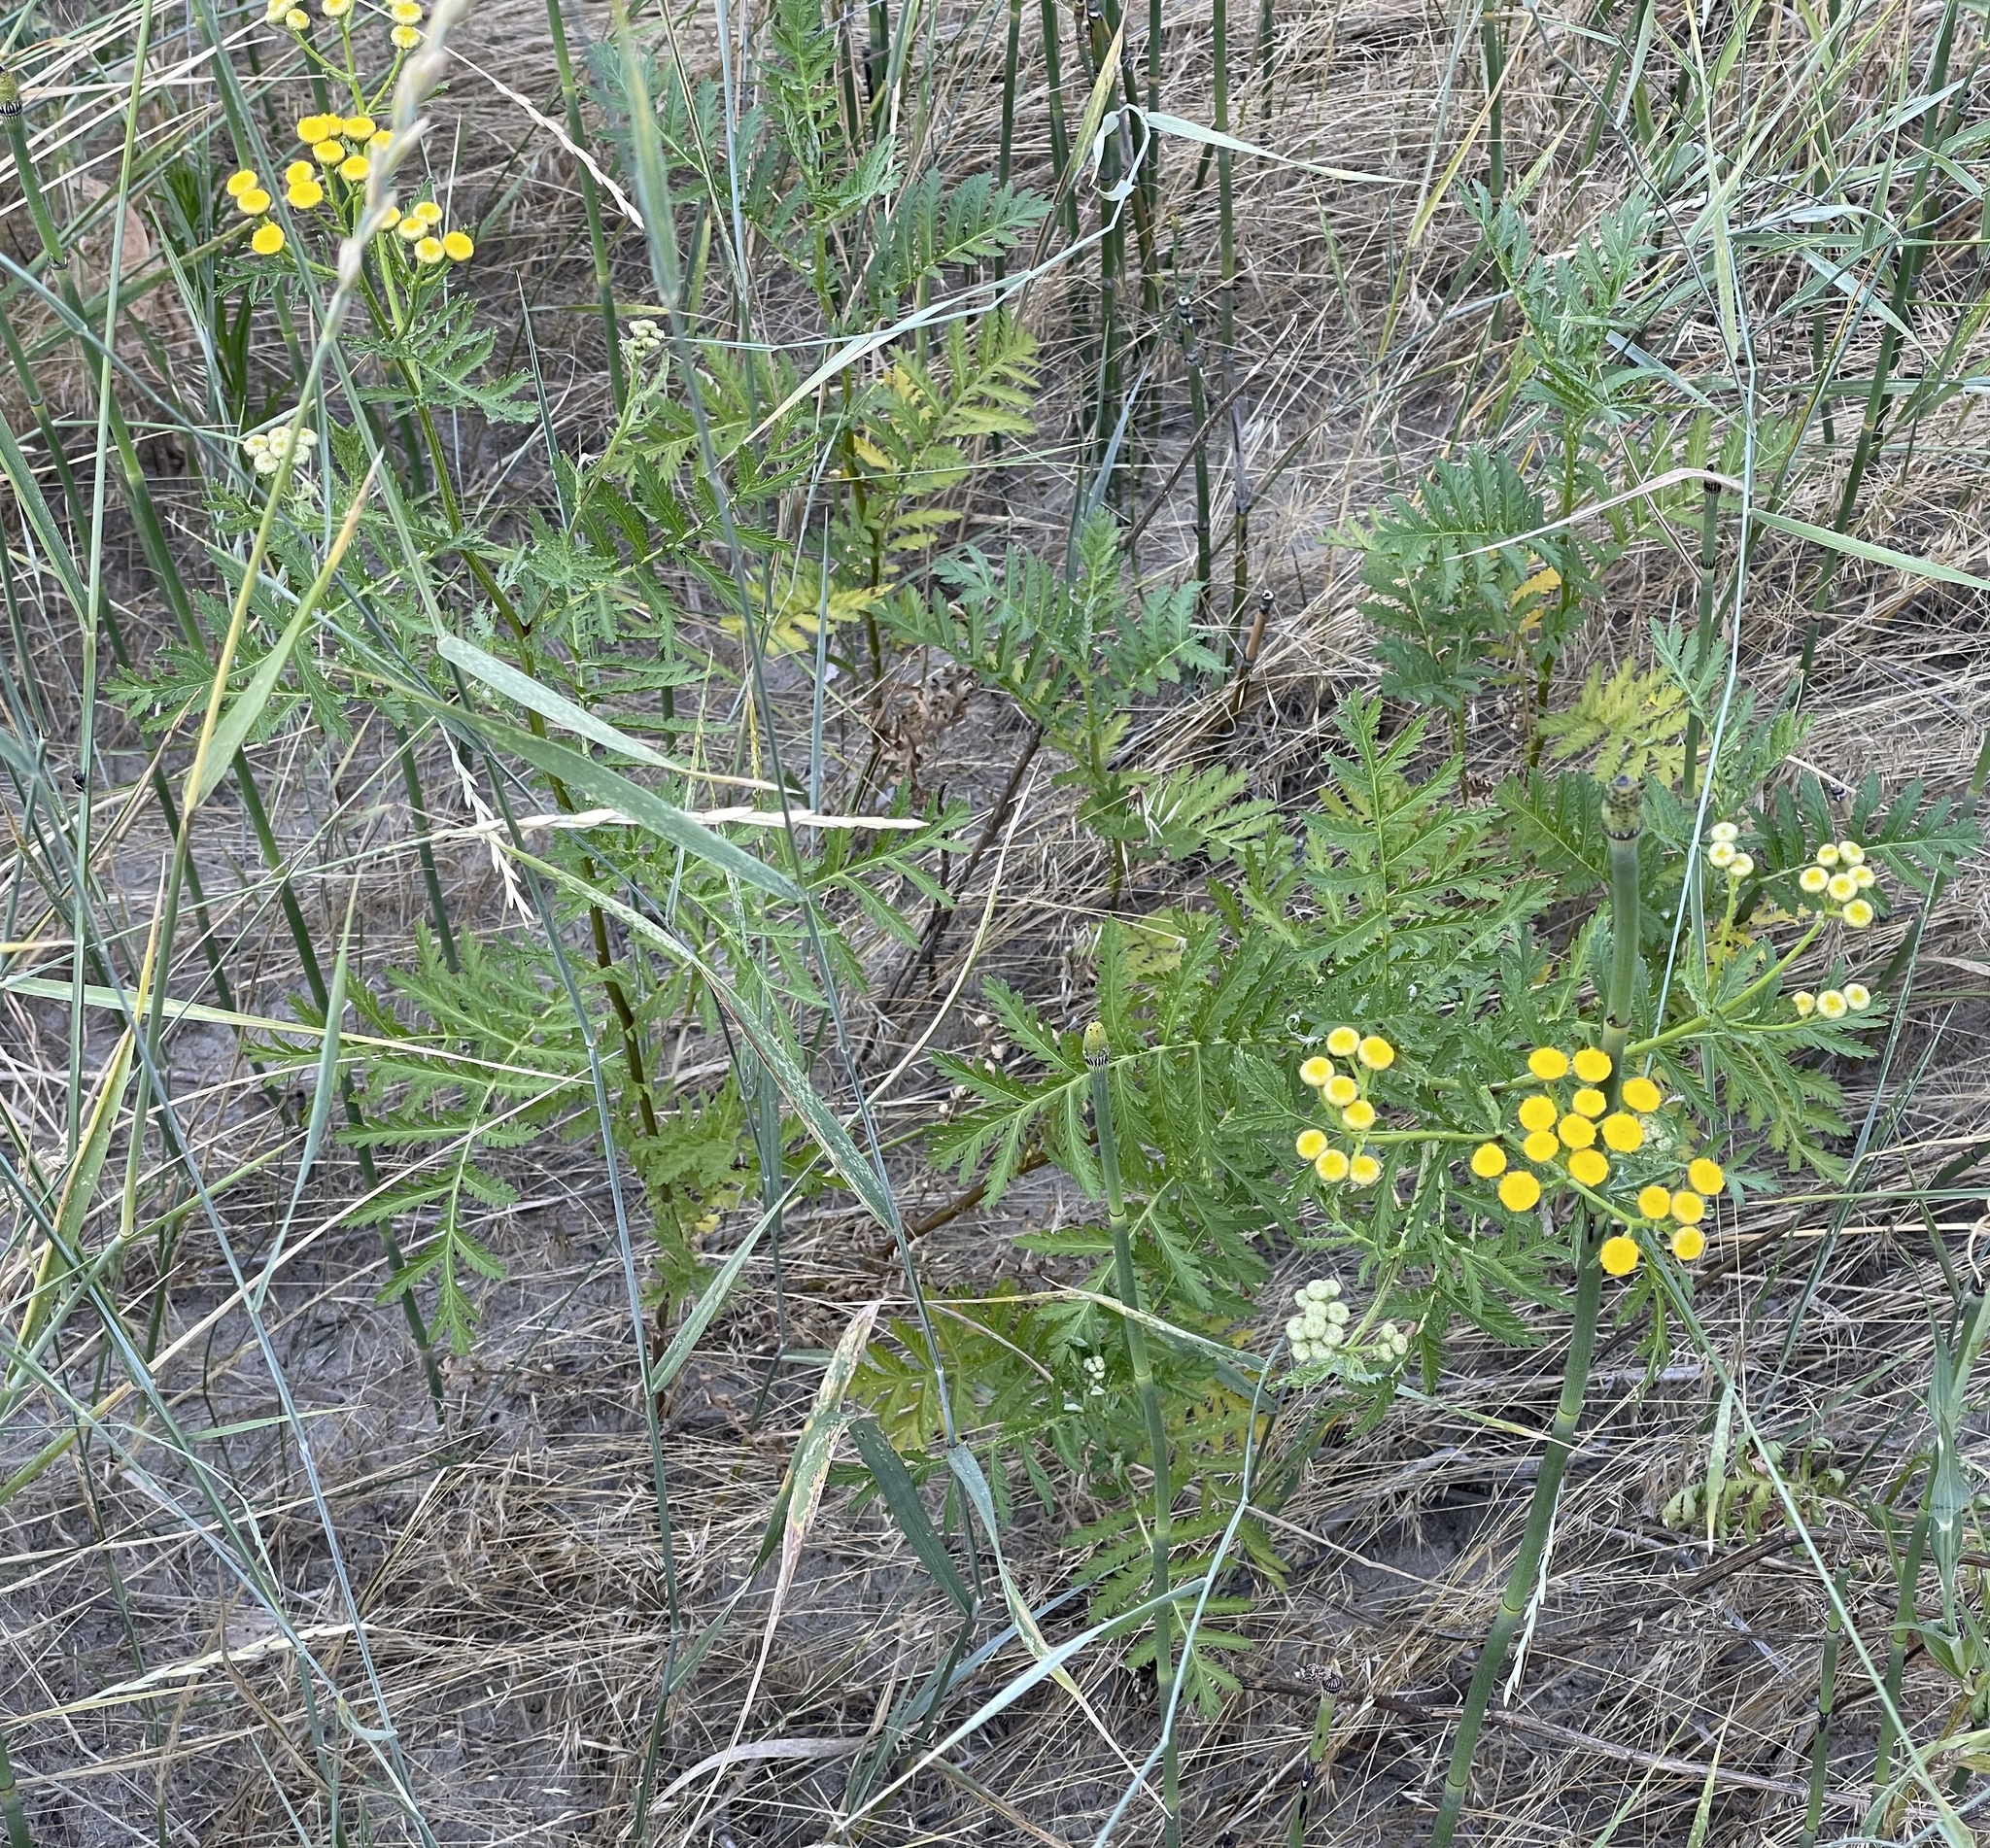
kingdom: Plantae
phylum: Tracheophyta
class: Magnoliopsida
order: Asterales
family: Asteraceae
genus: Tanacetum
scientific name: Tanacetum vulgare
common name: Common tansy
